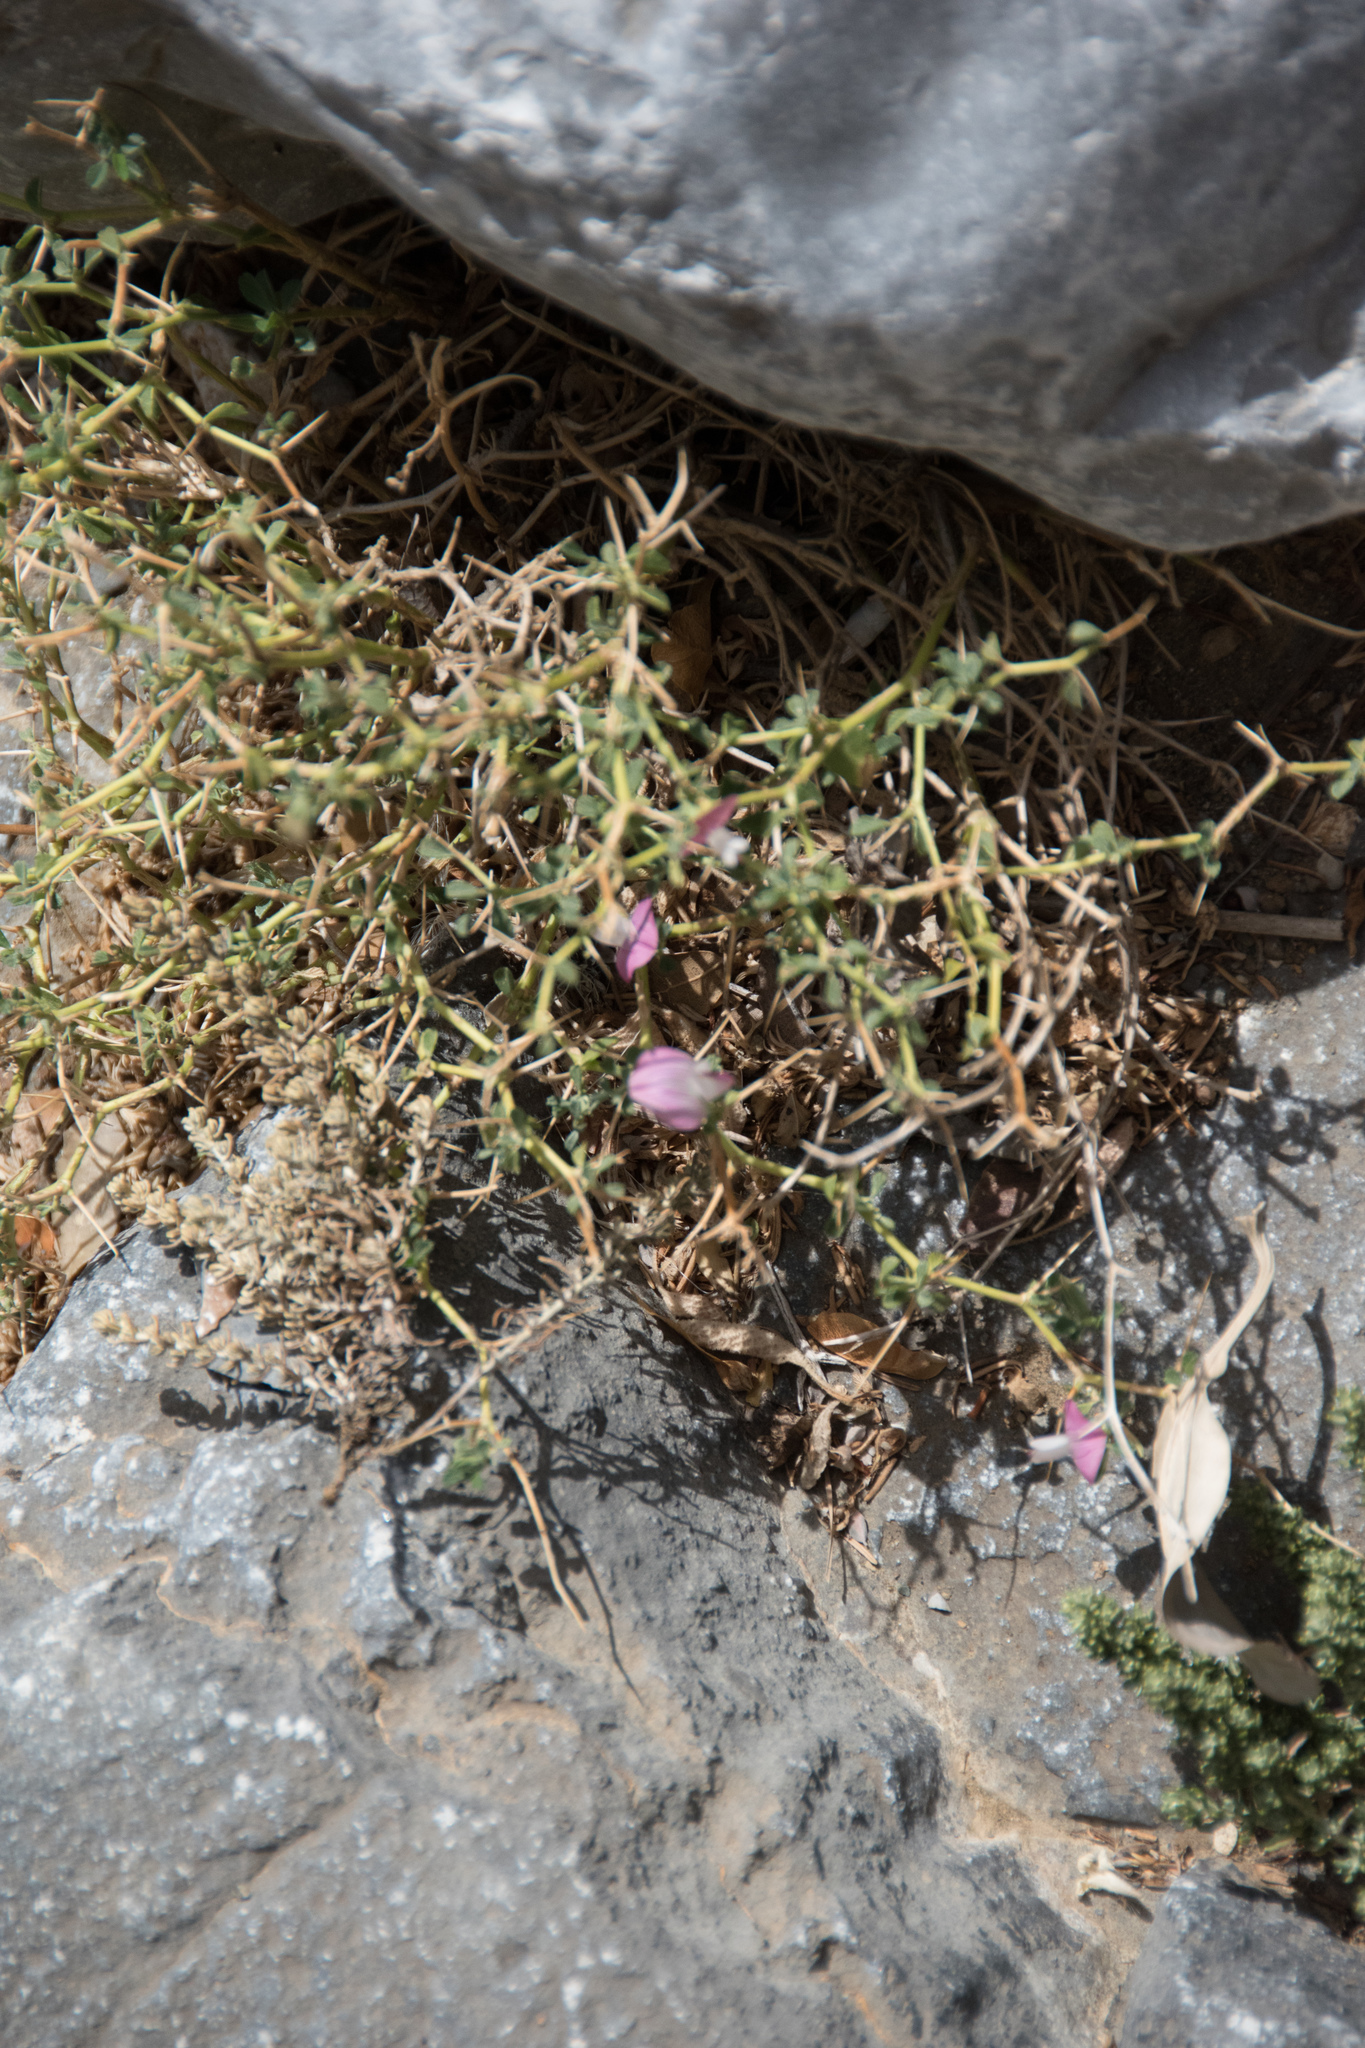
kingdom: Plantae
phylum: Tracheophyta
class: Magnoliopsida
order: Fabales
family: Fabaceae
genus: Ononis
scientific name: Ononis spinosa
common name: Spiny restharrow
